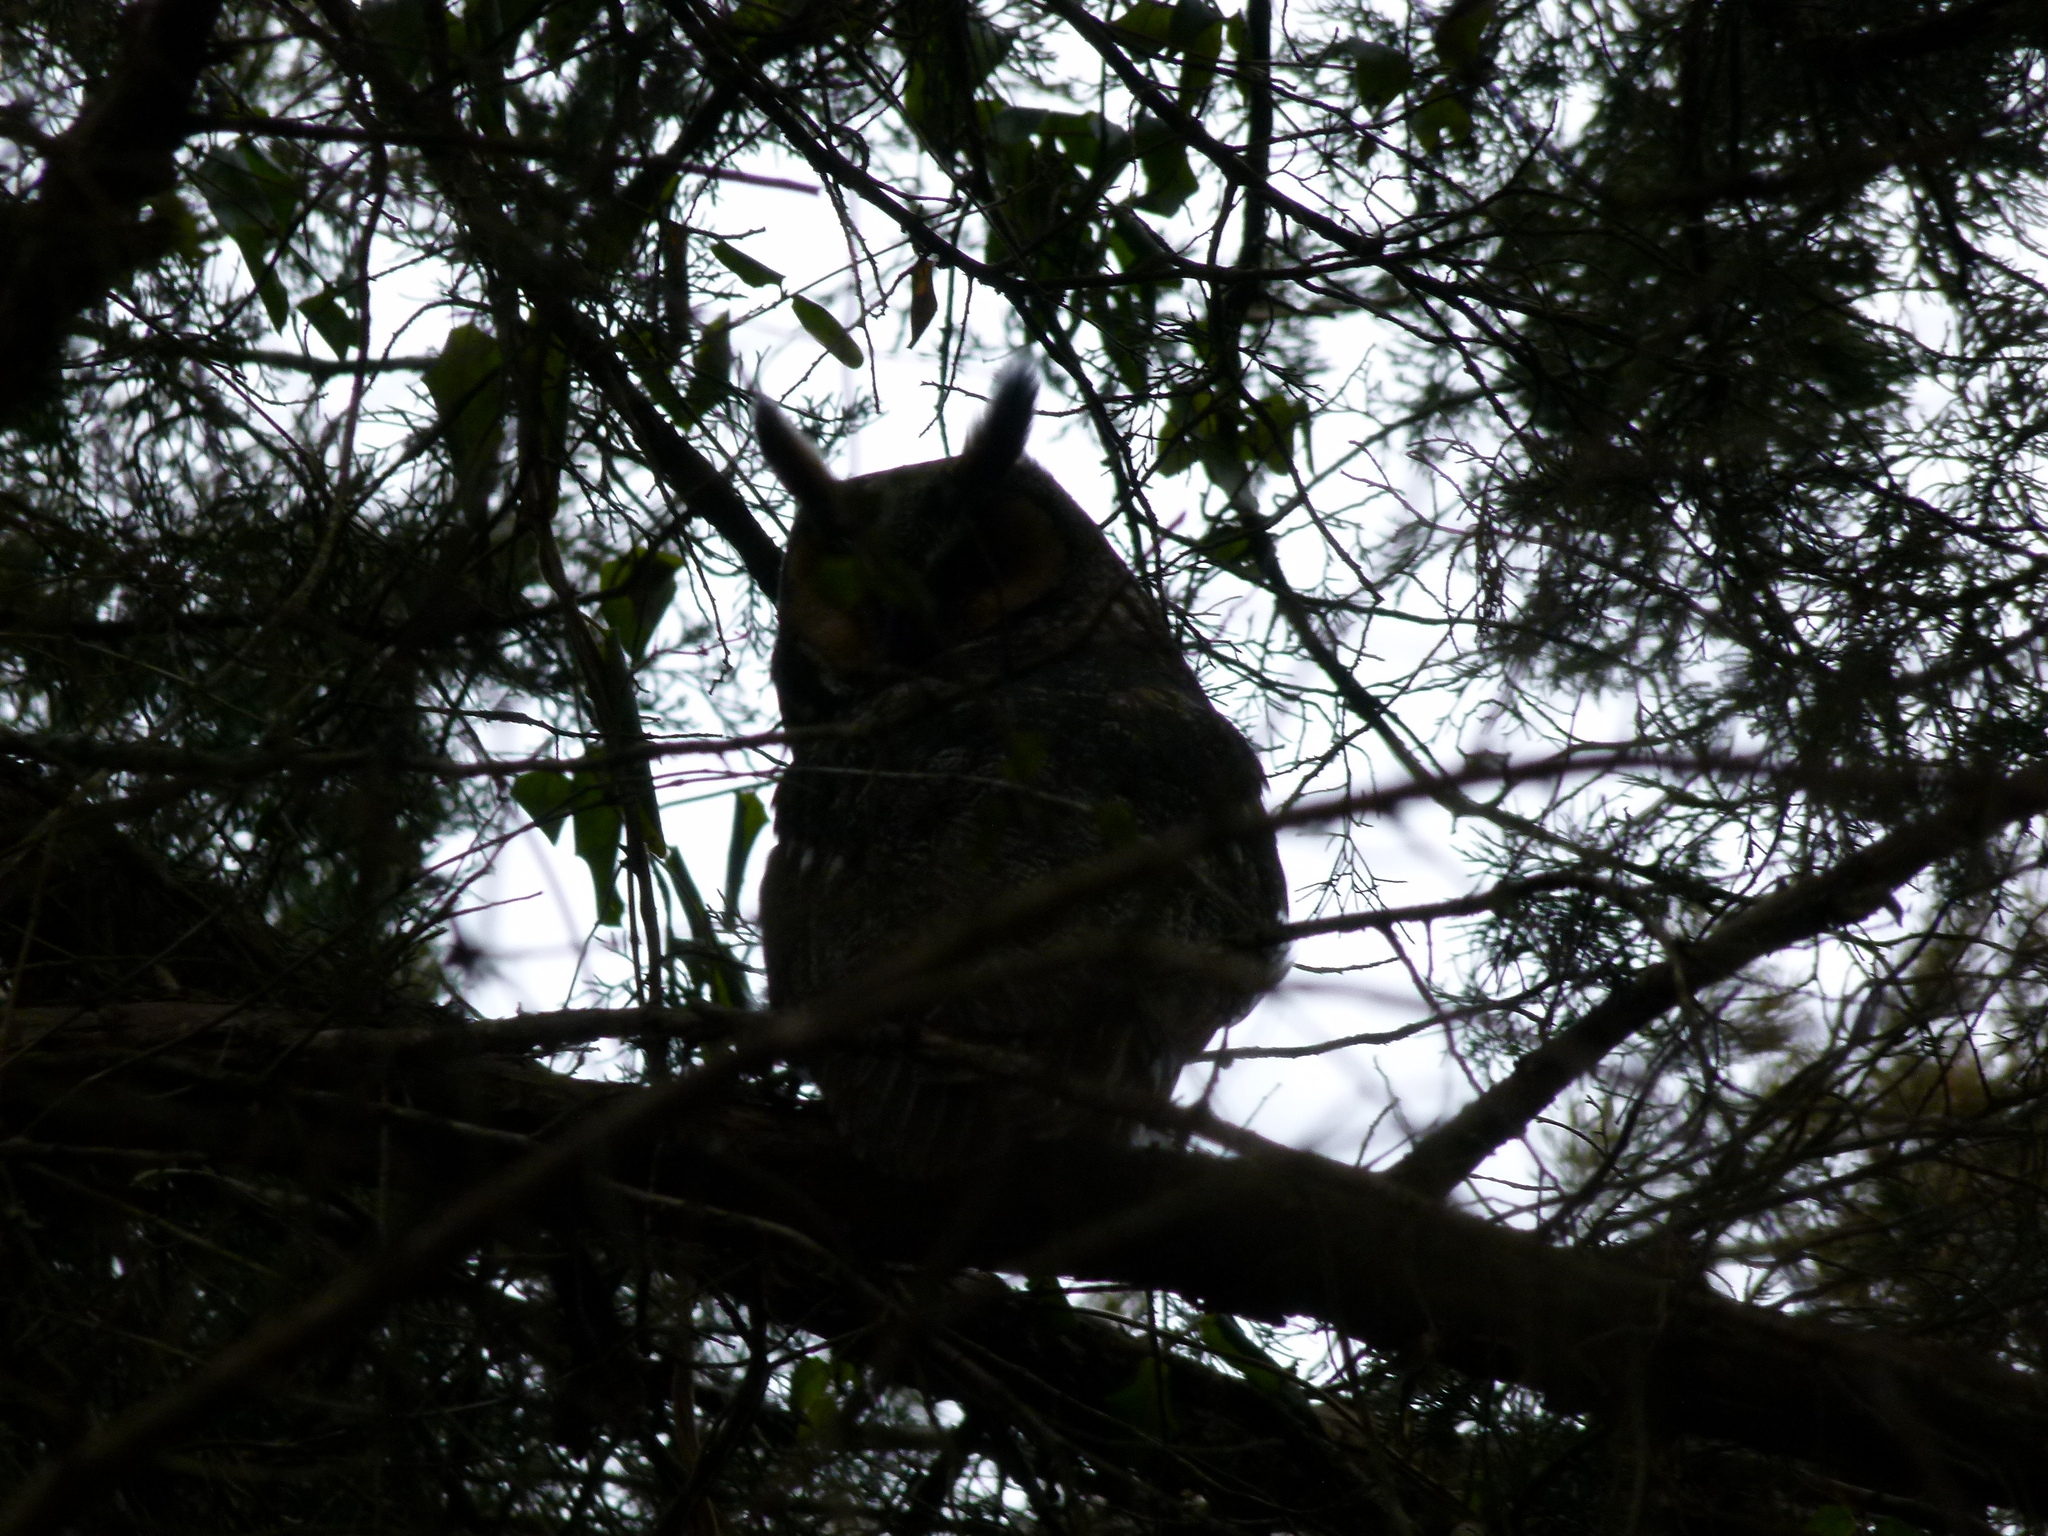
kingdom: Animalia
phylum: Chordata
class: Aves
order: Strigiformes
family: Strigidae
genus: Asio
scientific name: Asio otus
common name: Long-eared owl
